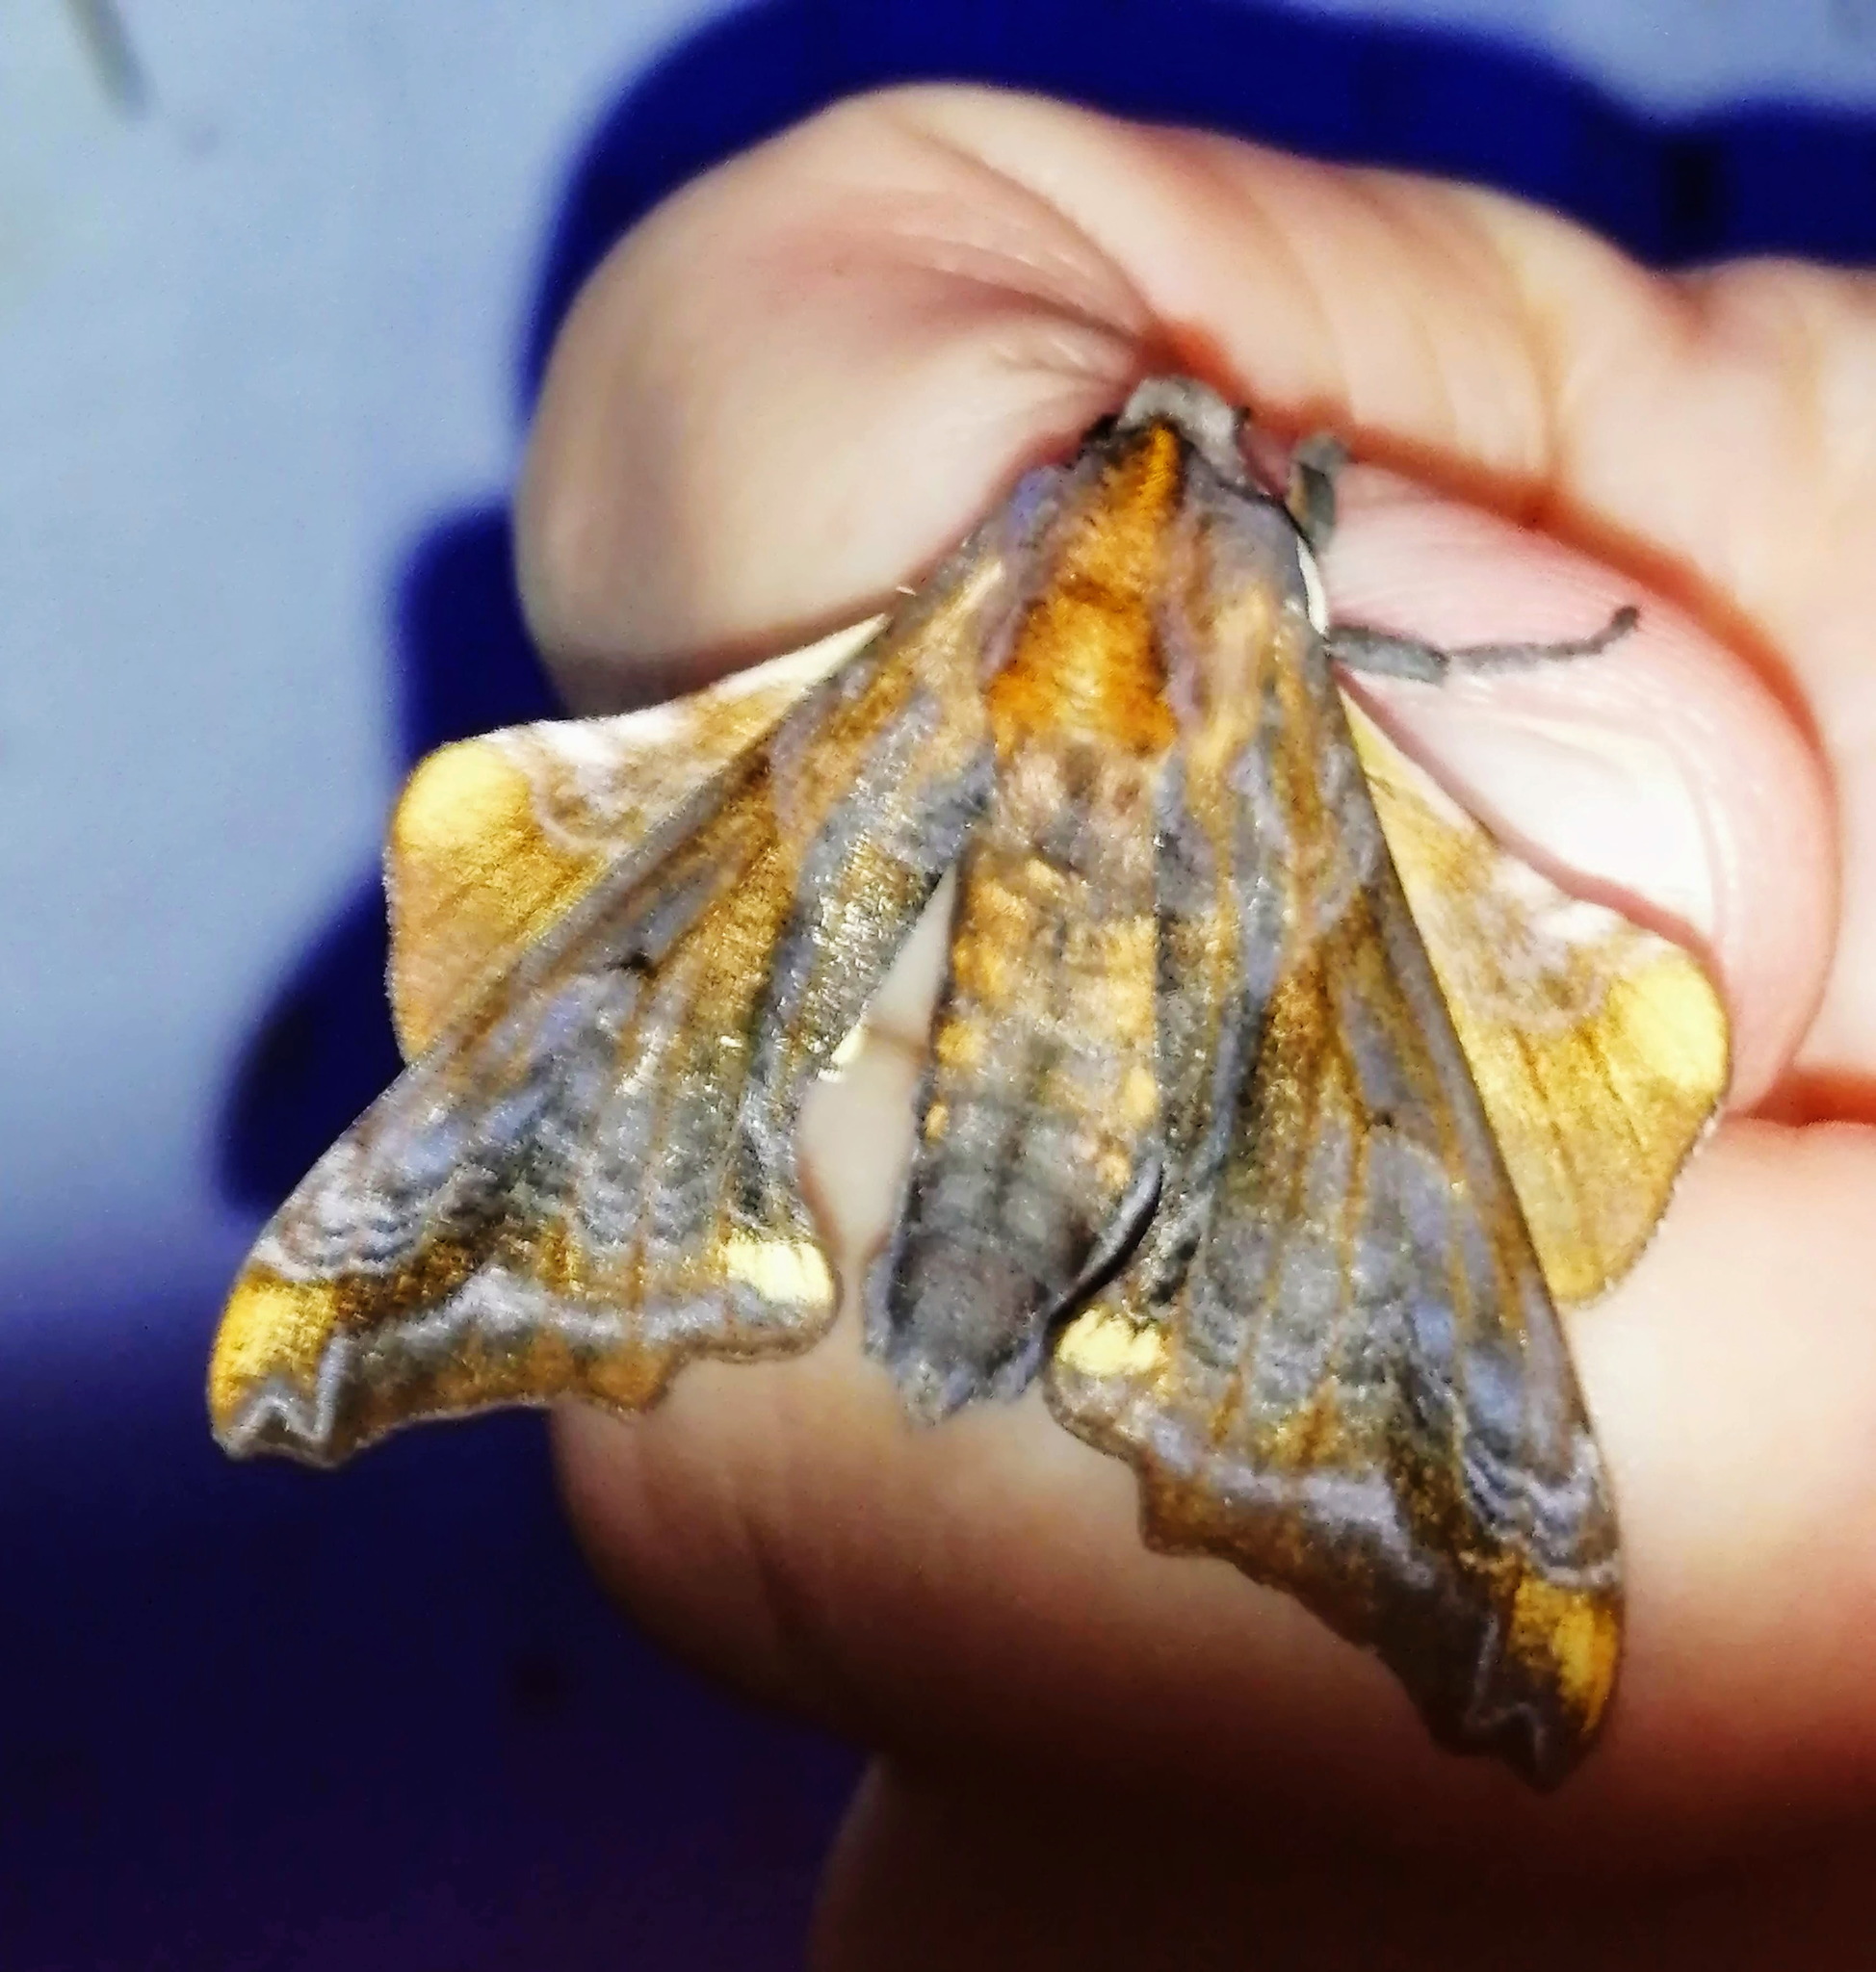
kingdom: Animalia
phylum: Arthropoda
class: Insecta
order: Lepidoptera
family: Sphingidae
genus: Paonias
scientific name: Paonias myops
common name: Small-eyed sphinx
